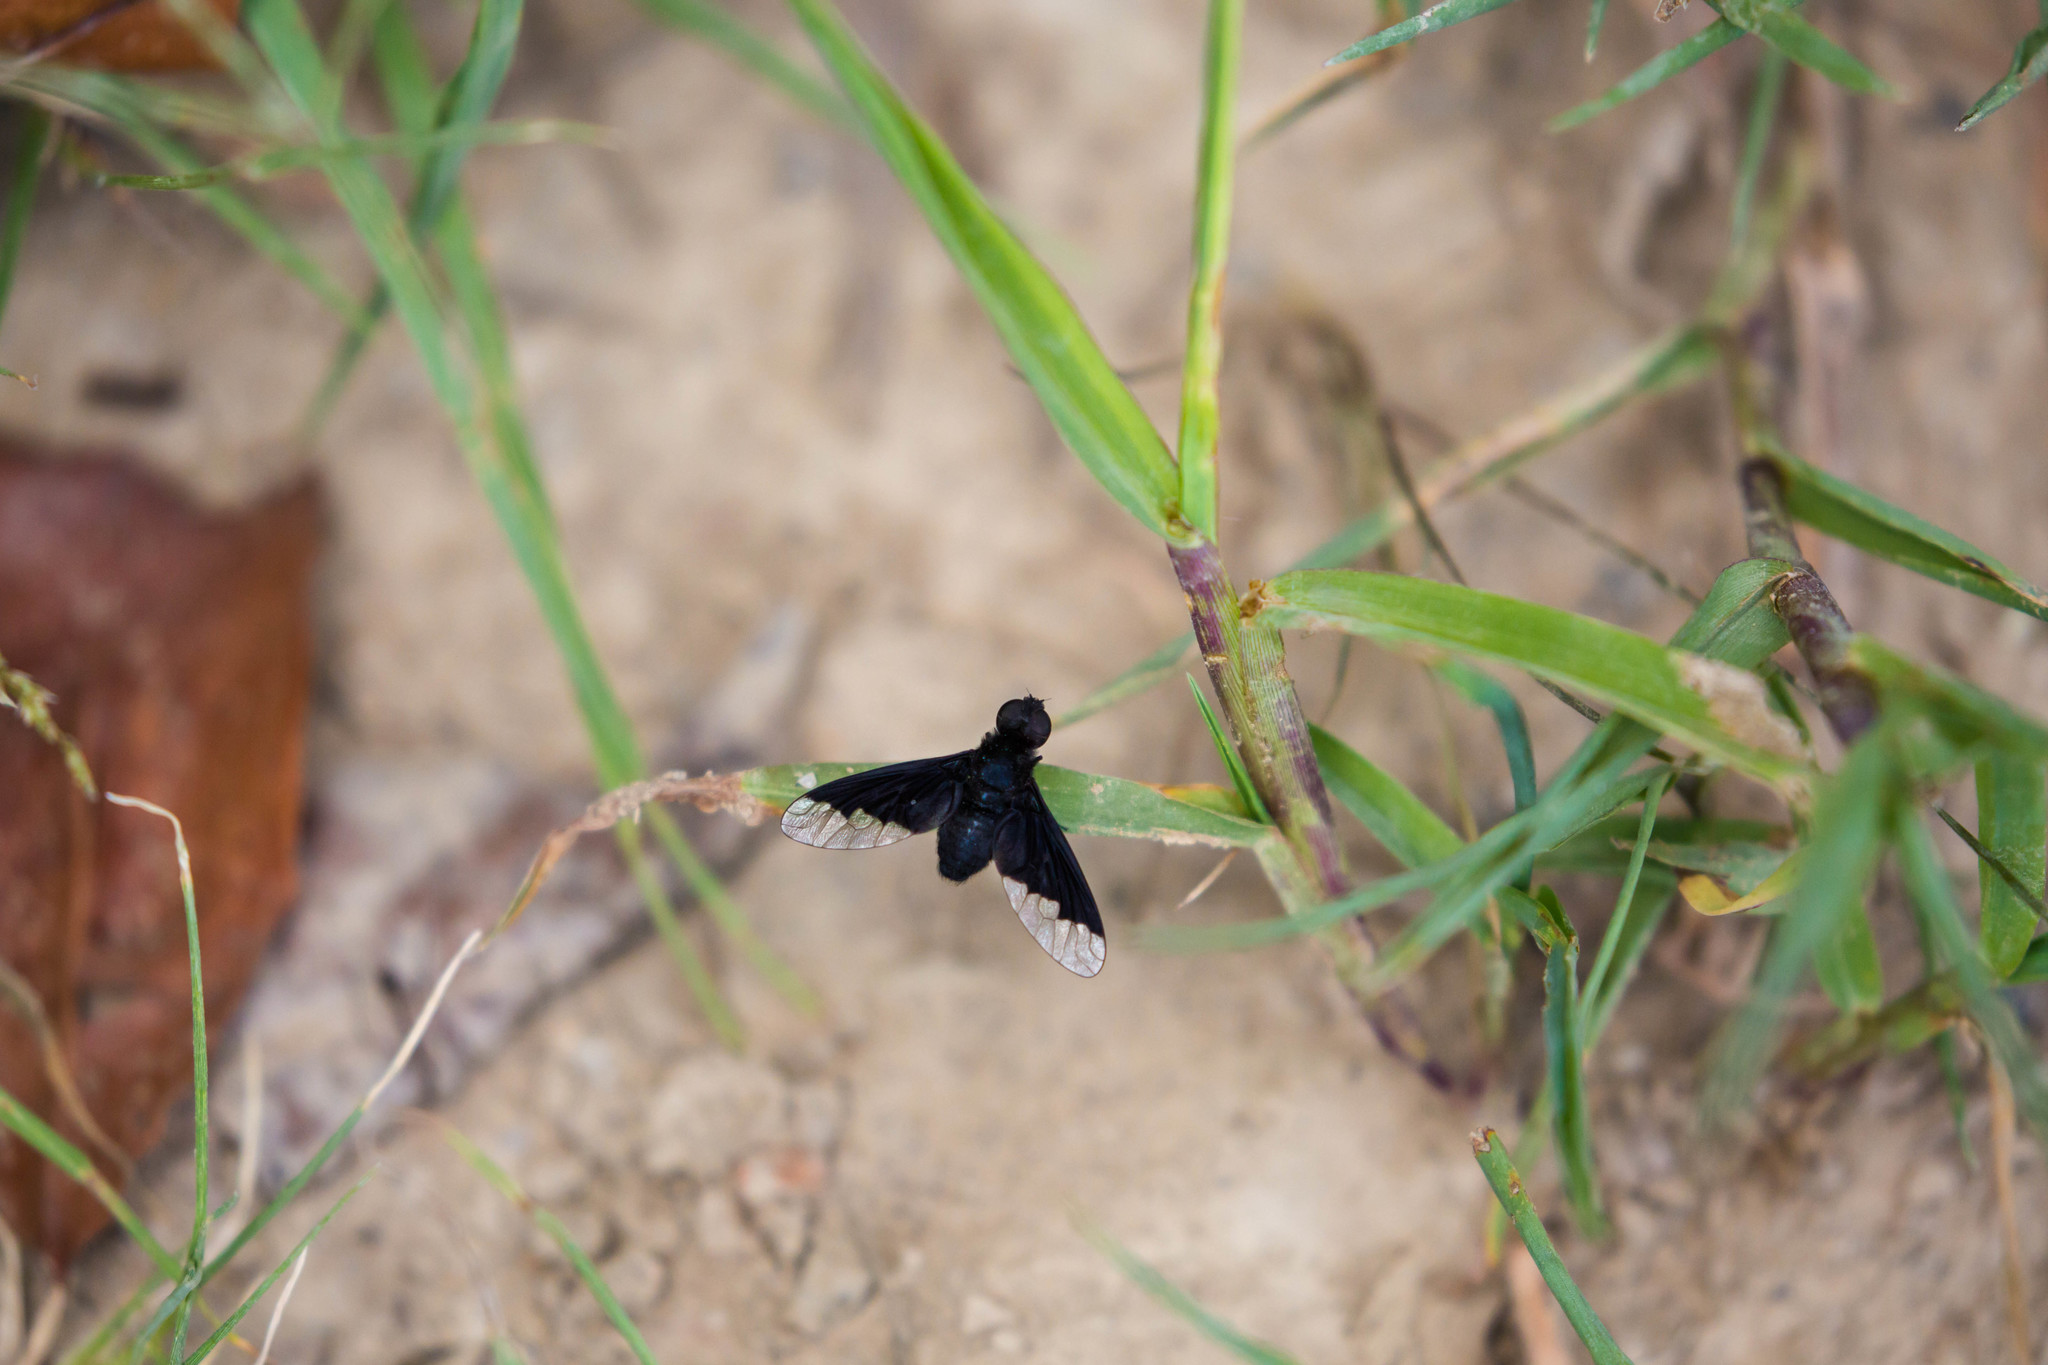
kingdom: Animalia
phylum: Arthropoda
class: Insecta
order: Diptera
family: Bombyliidae
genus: Anthrax
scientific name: Anthrax analis
